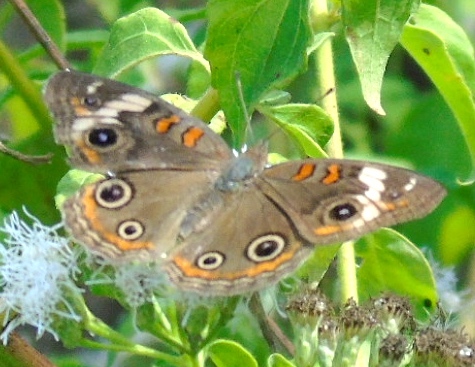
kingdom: Animalia
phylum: Arthropoda
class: Insecta
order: Lepidoptera
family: Nymphalidae
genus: Junonia
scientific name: Junonia coenia
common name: Common buckeye
